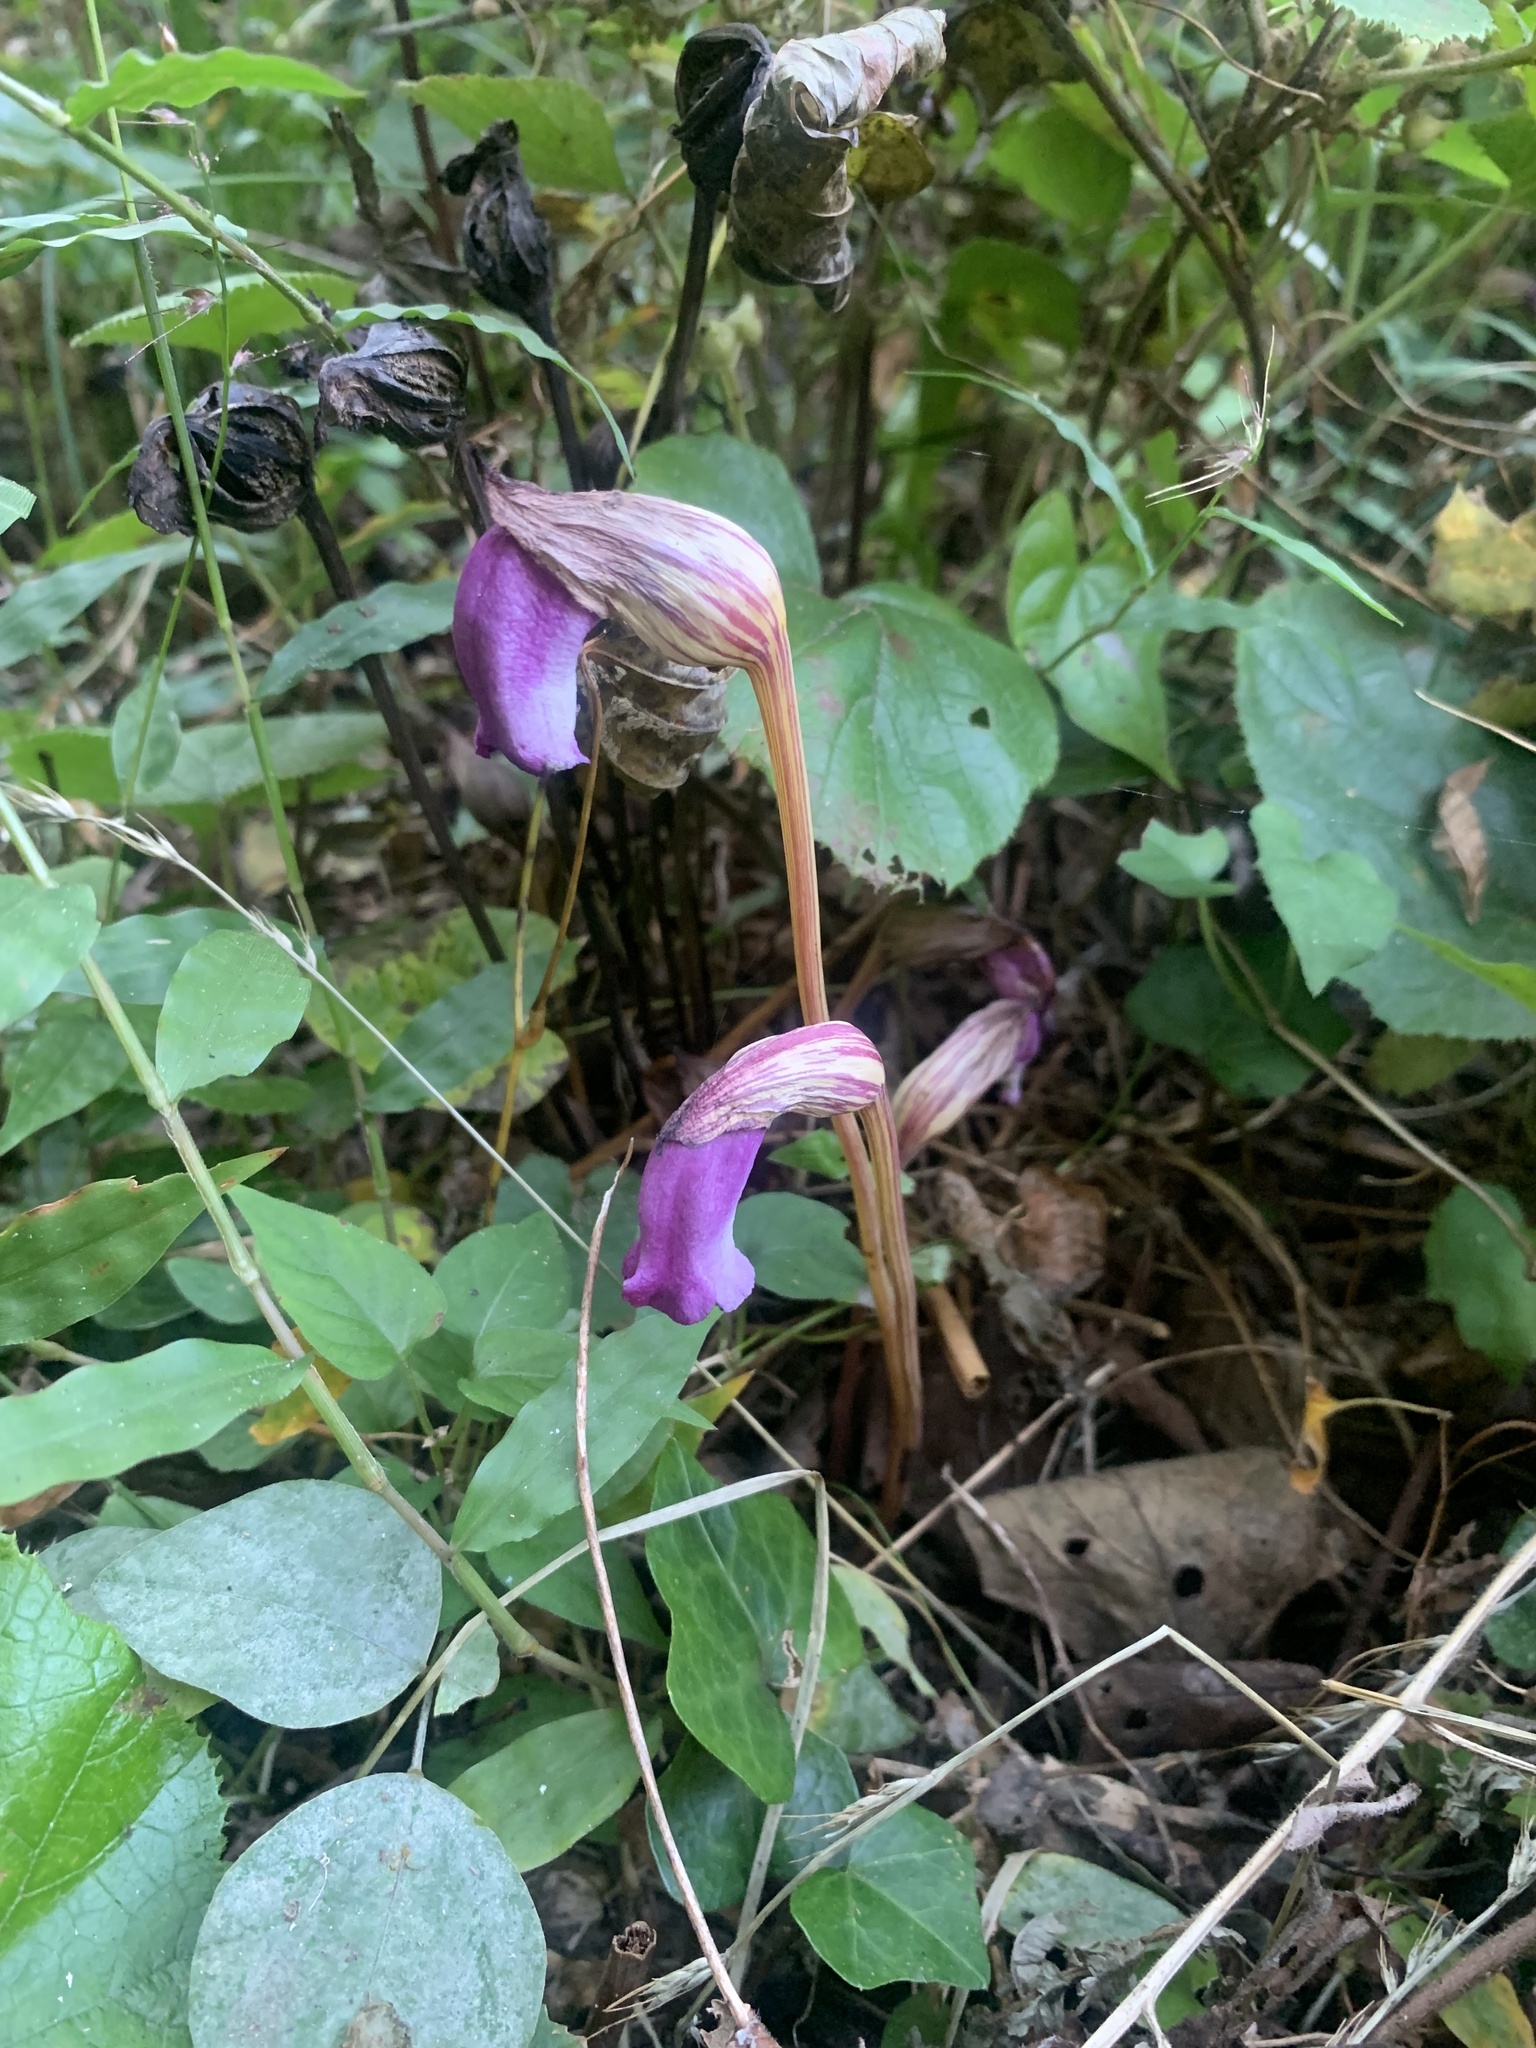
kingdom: Plantae
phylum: Tracheophyta
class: Magnoliopsida
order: Lamiales
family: Orobanchaceae
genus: Aeginetia
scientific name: Aeginetia indica
